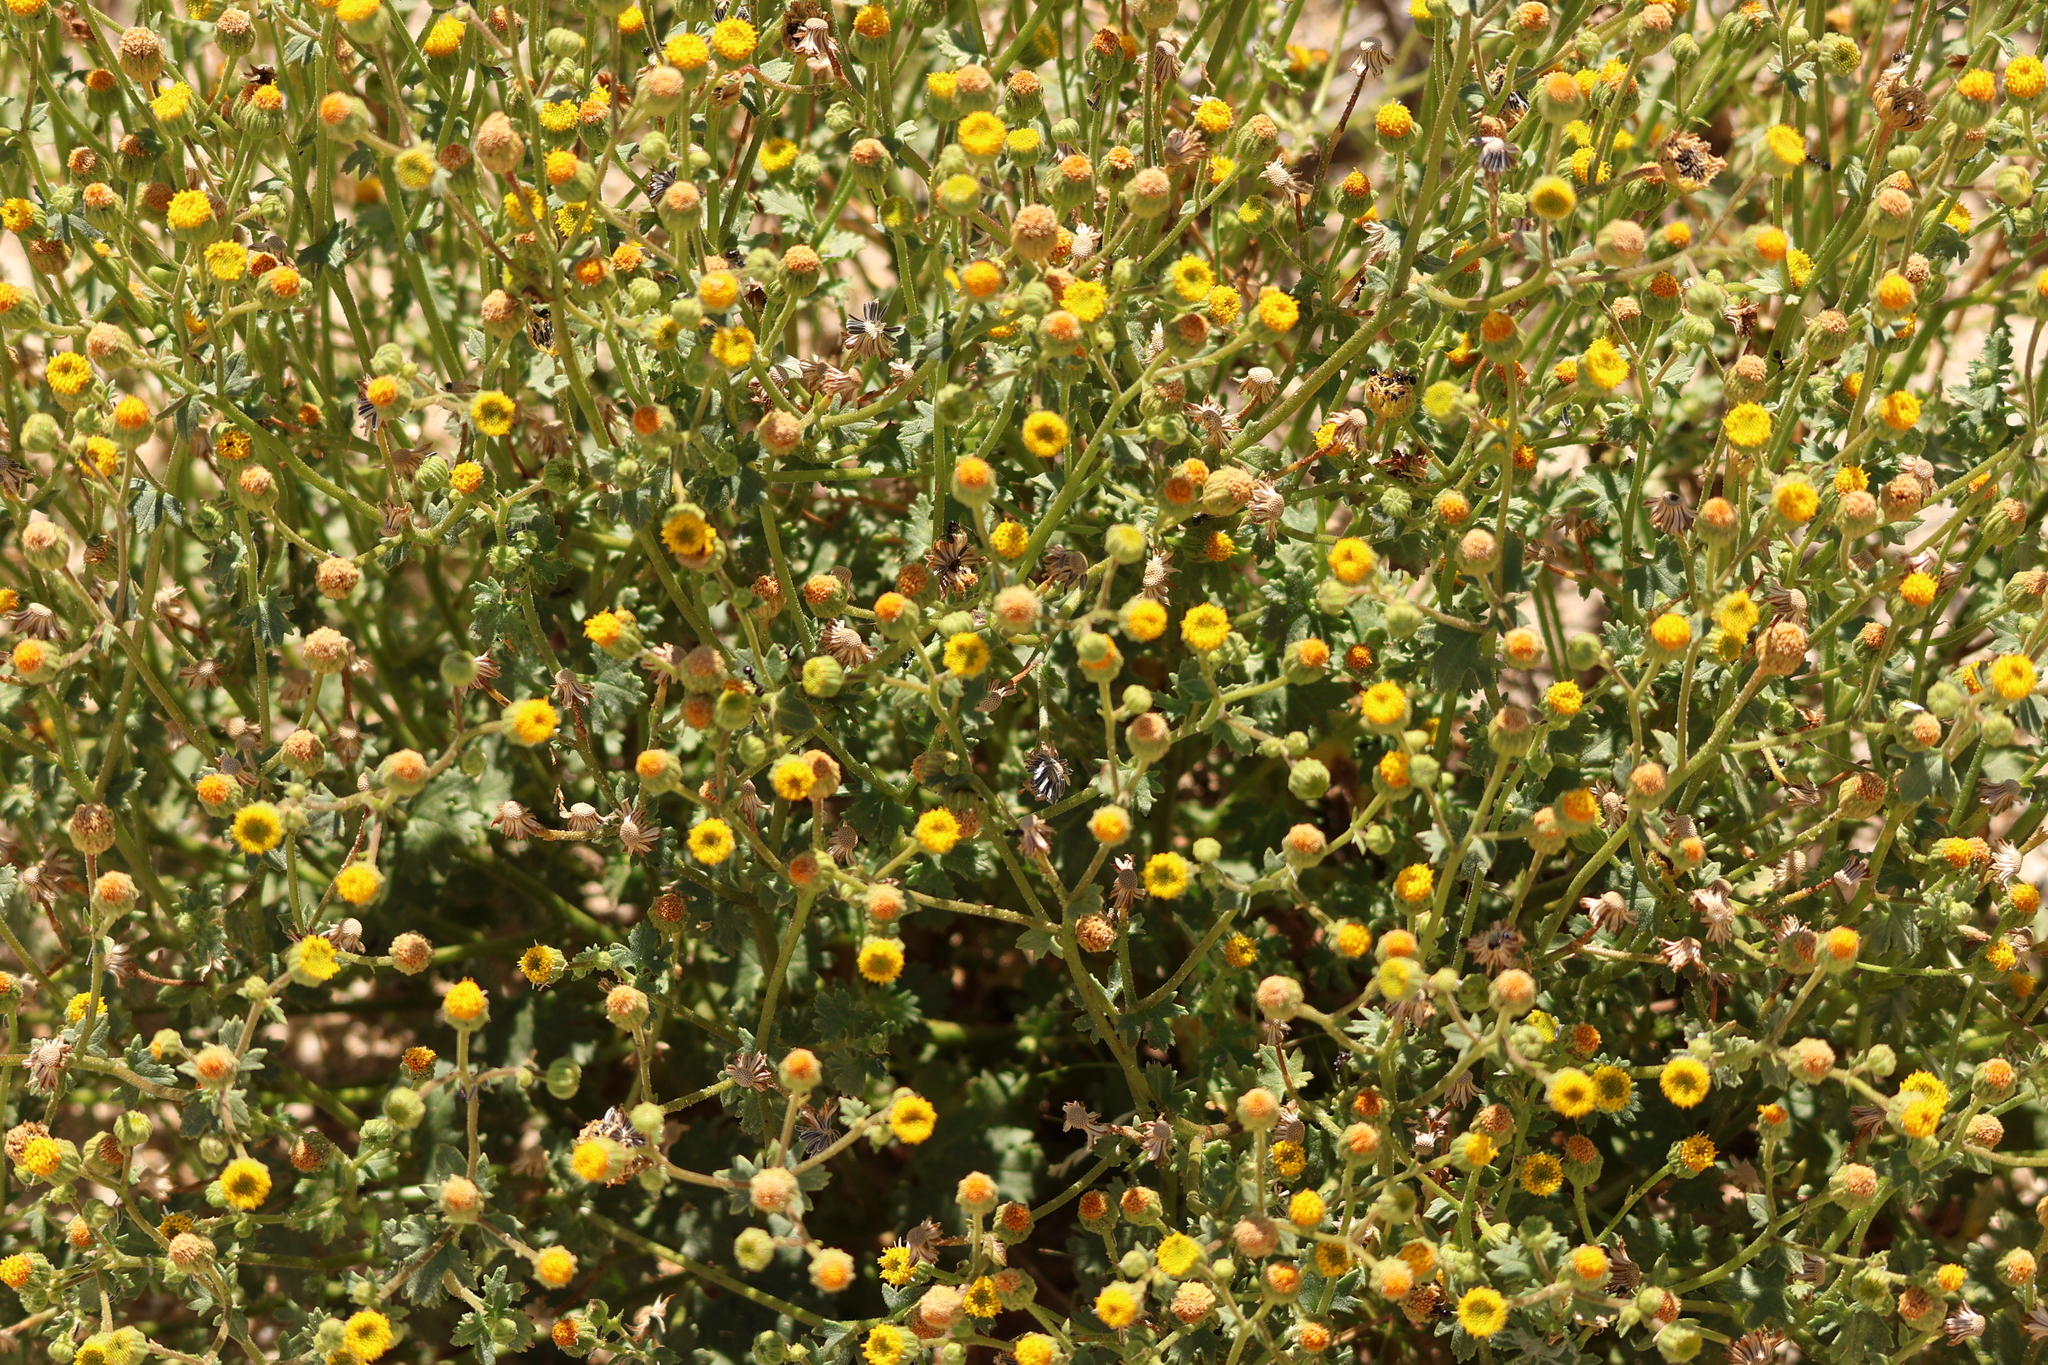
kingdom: Plantae
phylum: Tracheophyta
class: Magnoliopsida
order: Asterales
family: Asteraceae
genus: Laphamia
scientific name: Laphamia emoryi
